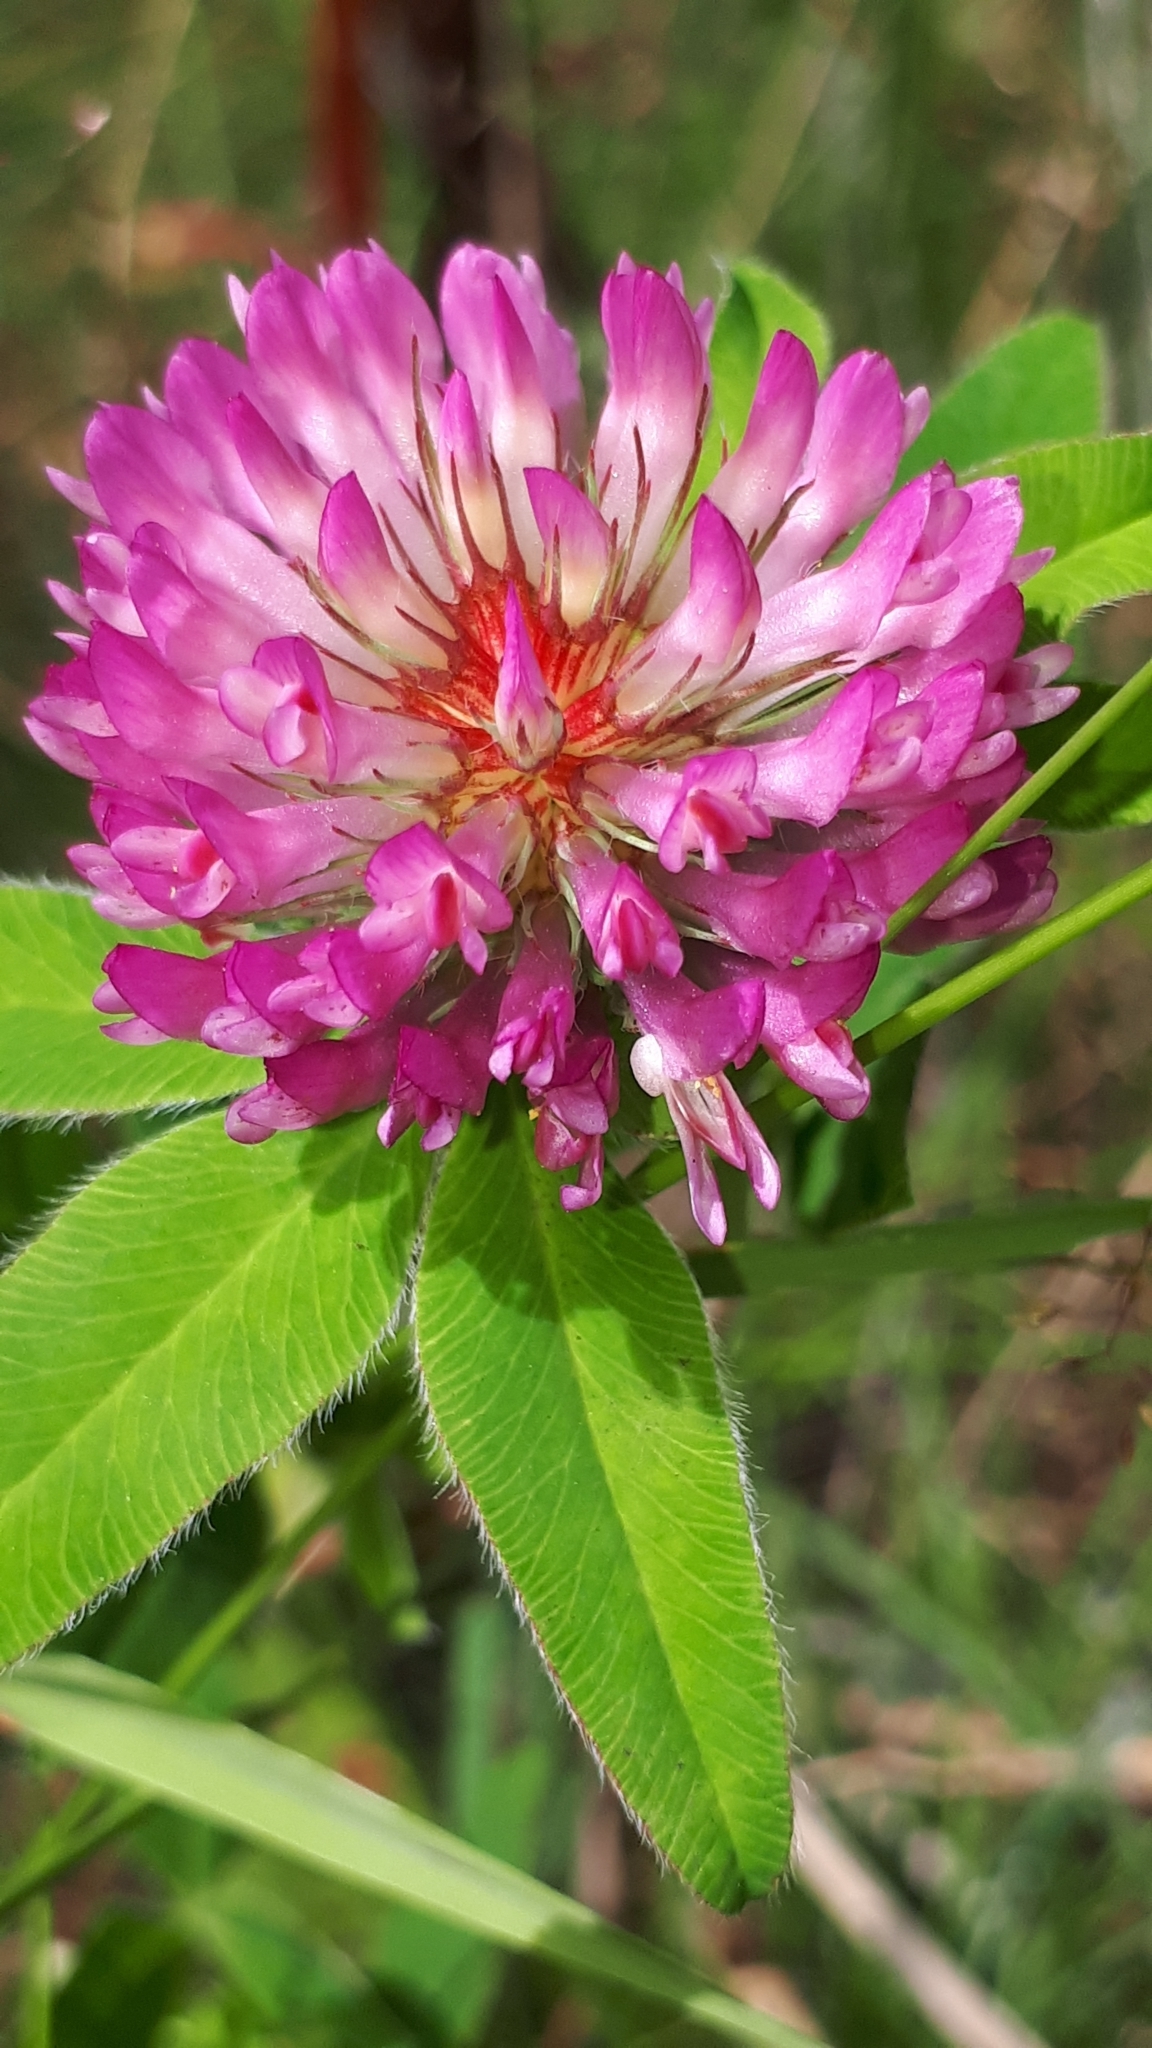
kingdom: Plantae
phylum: Tracheophyta
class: Magnoliopsida
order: Fabales
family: Fabaceae
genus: Trifolium
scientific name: Trifolium pratense
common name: Red clover
